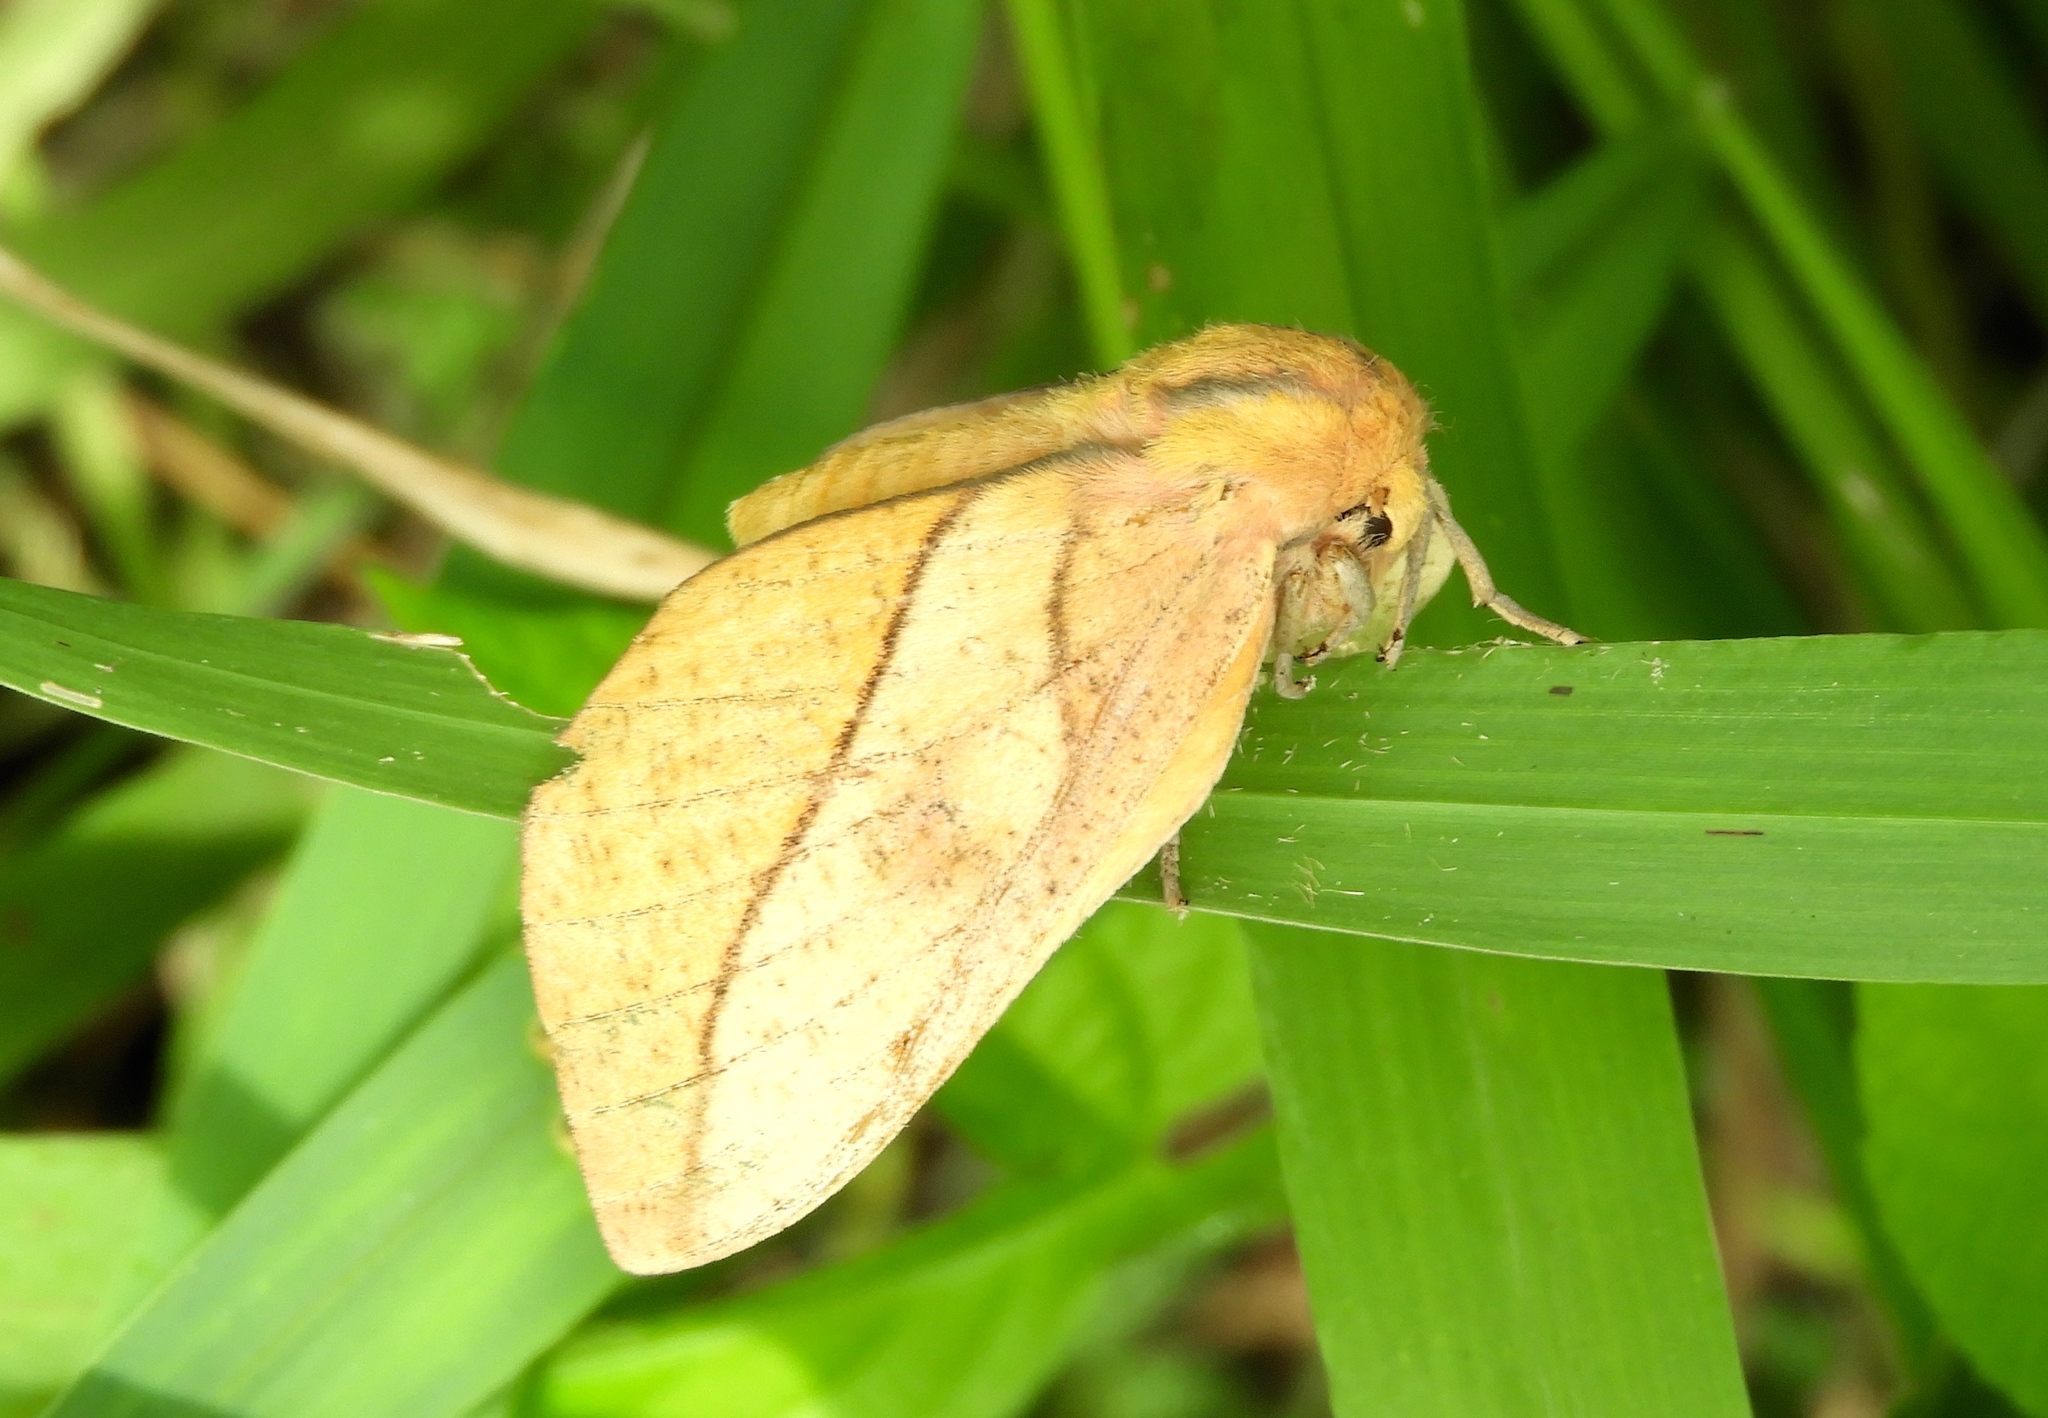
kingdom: Animalia
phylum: Arthropoda
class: Insecta
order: Lepidoptera
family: Saturniidae
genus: Syssphinx
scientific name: Syssphinx
